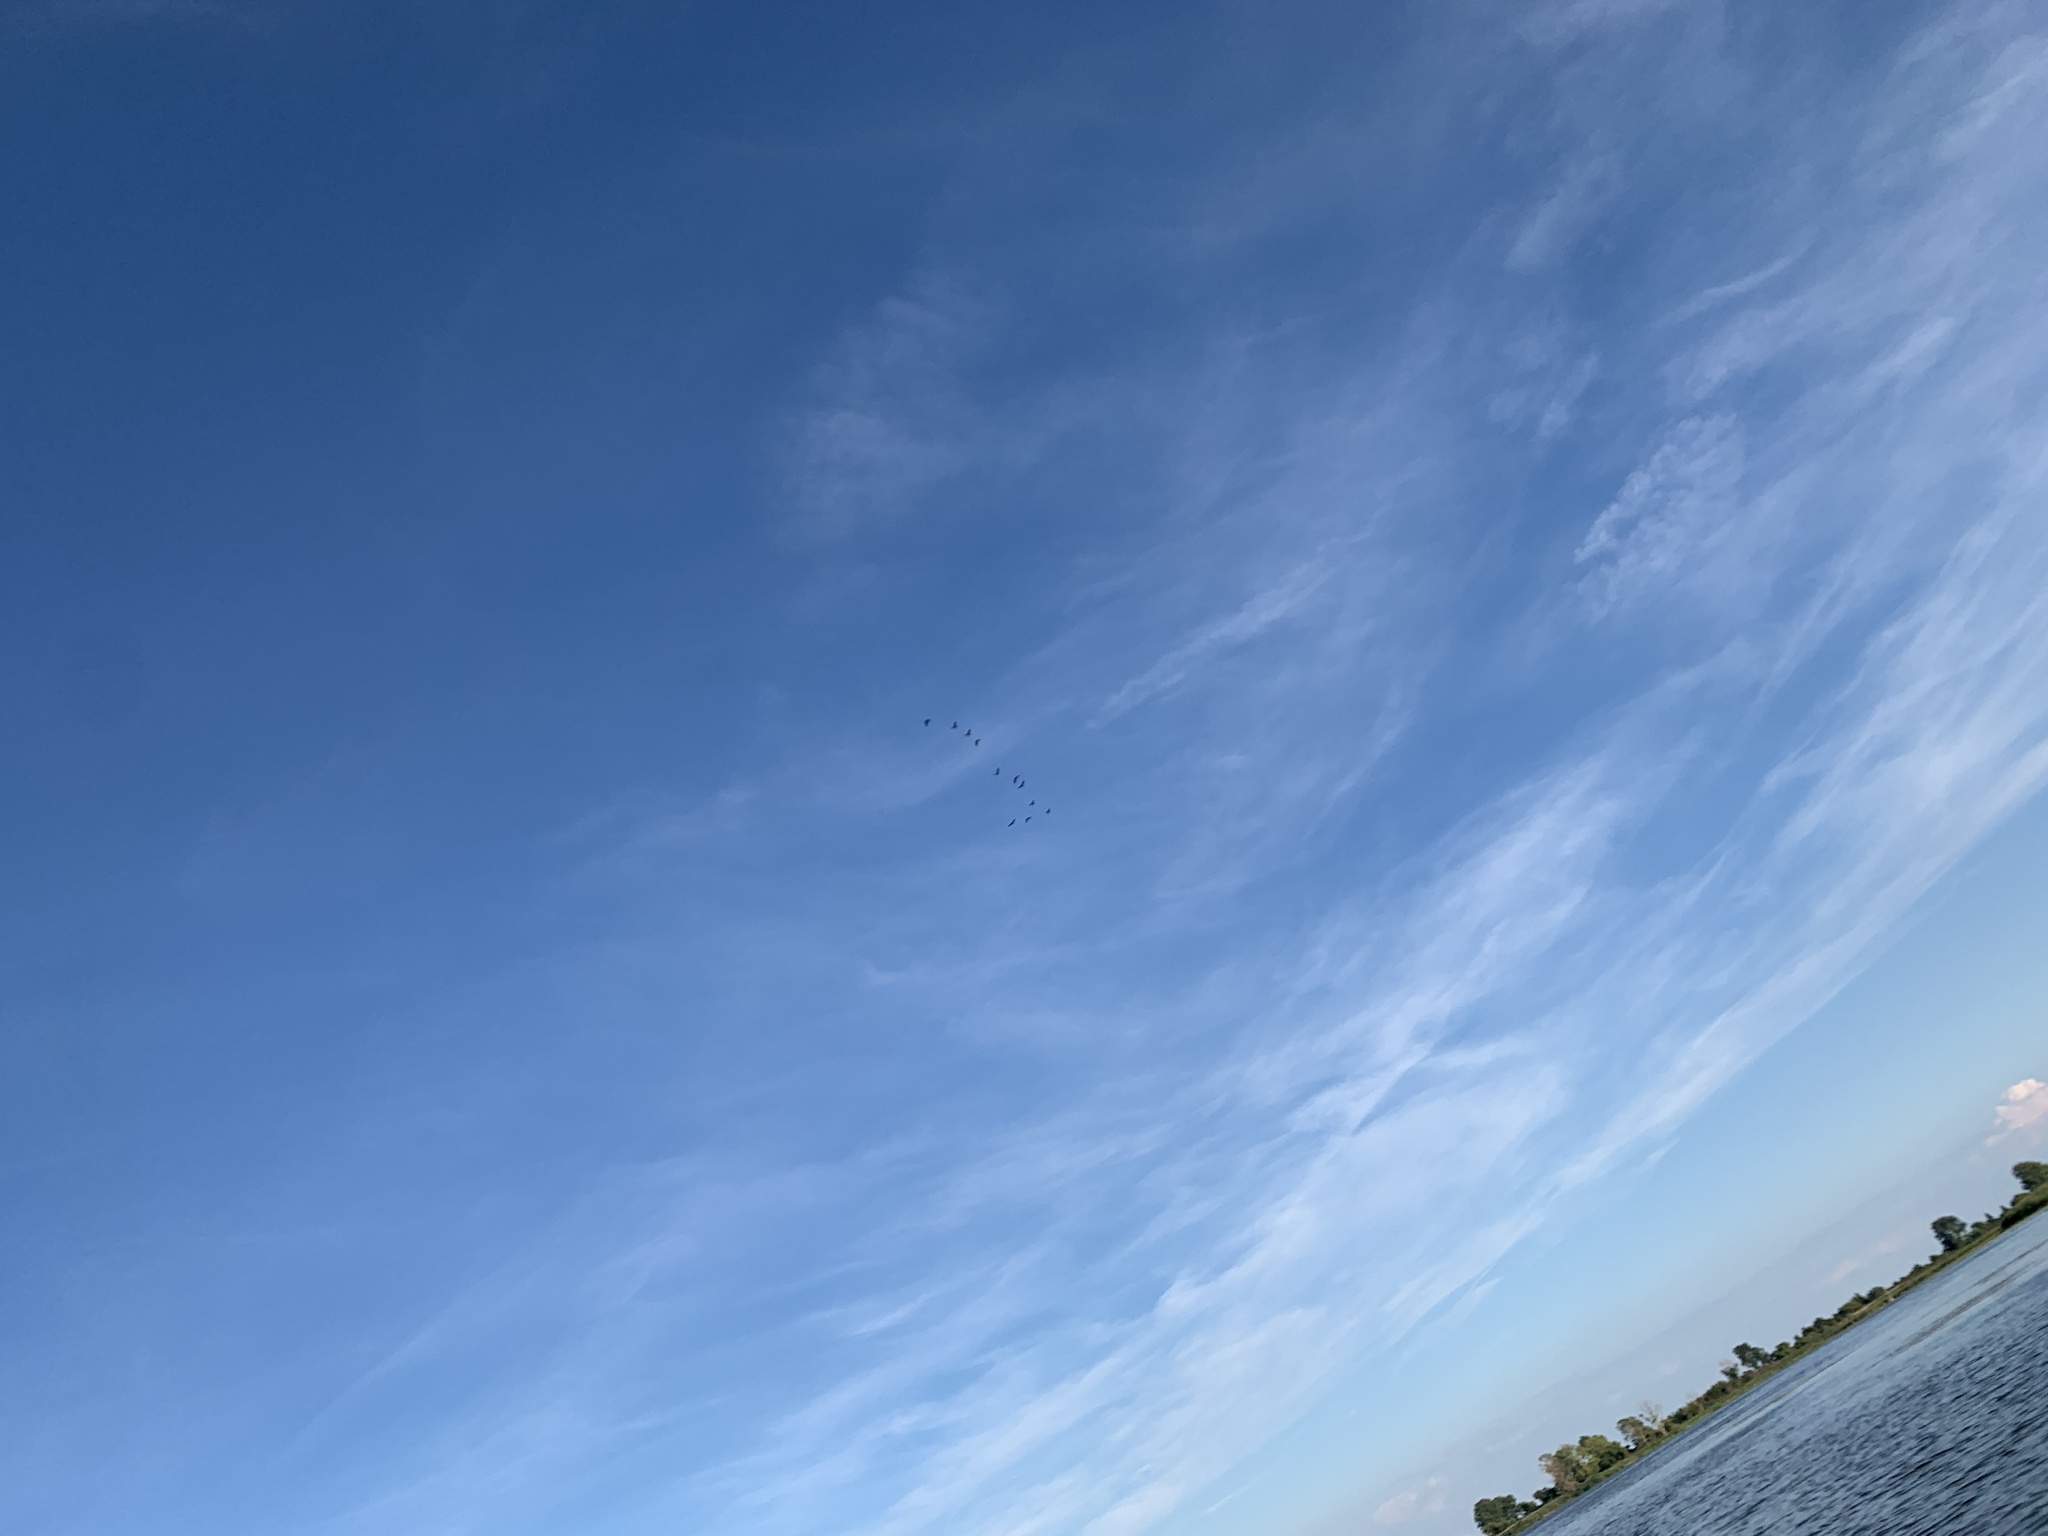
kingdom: Animalia
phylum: Chordata
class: Aves
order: Suliformes
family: Phalacrocoracidae
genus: Phalacrocorax
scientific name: Phalacrocorax auritus
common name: Double-crested cormorant
